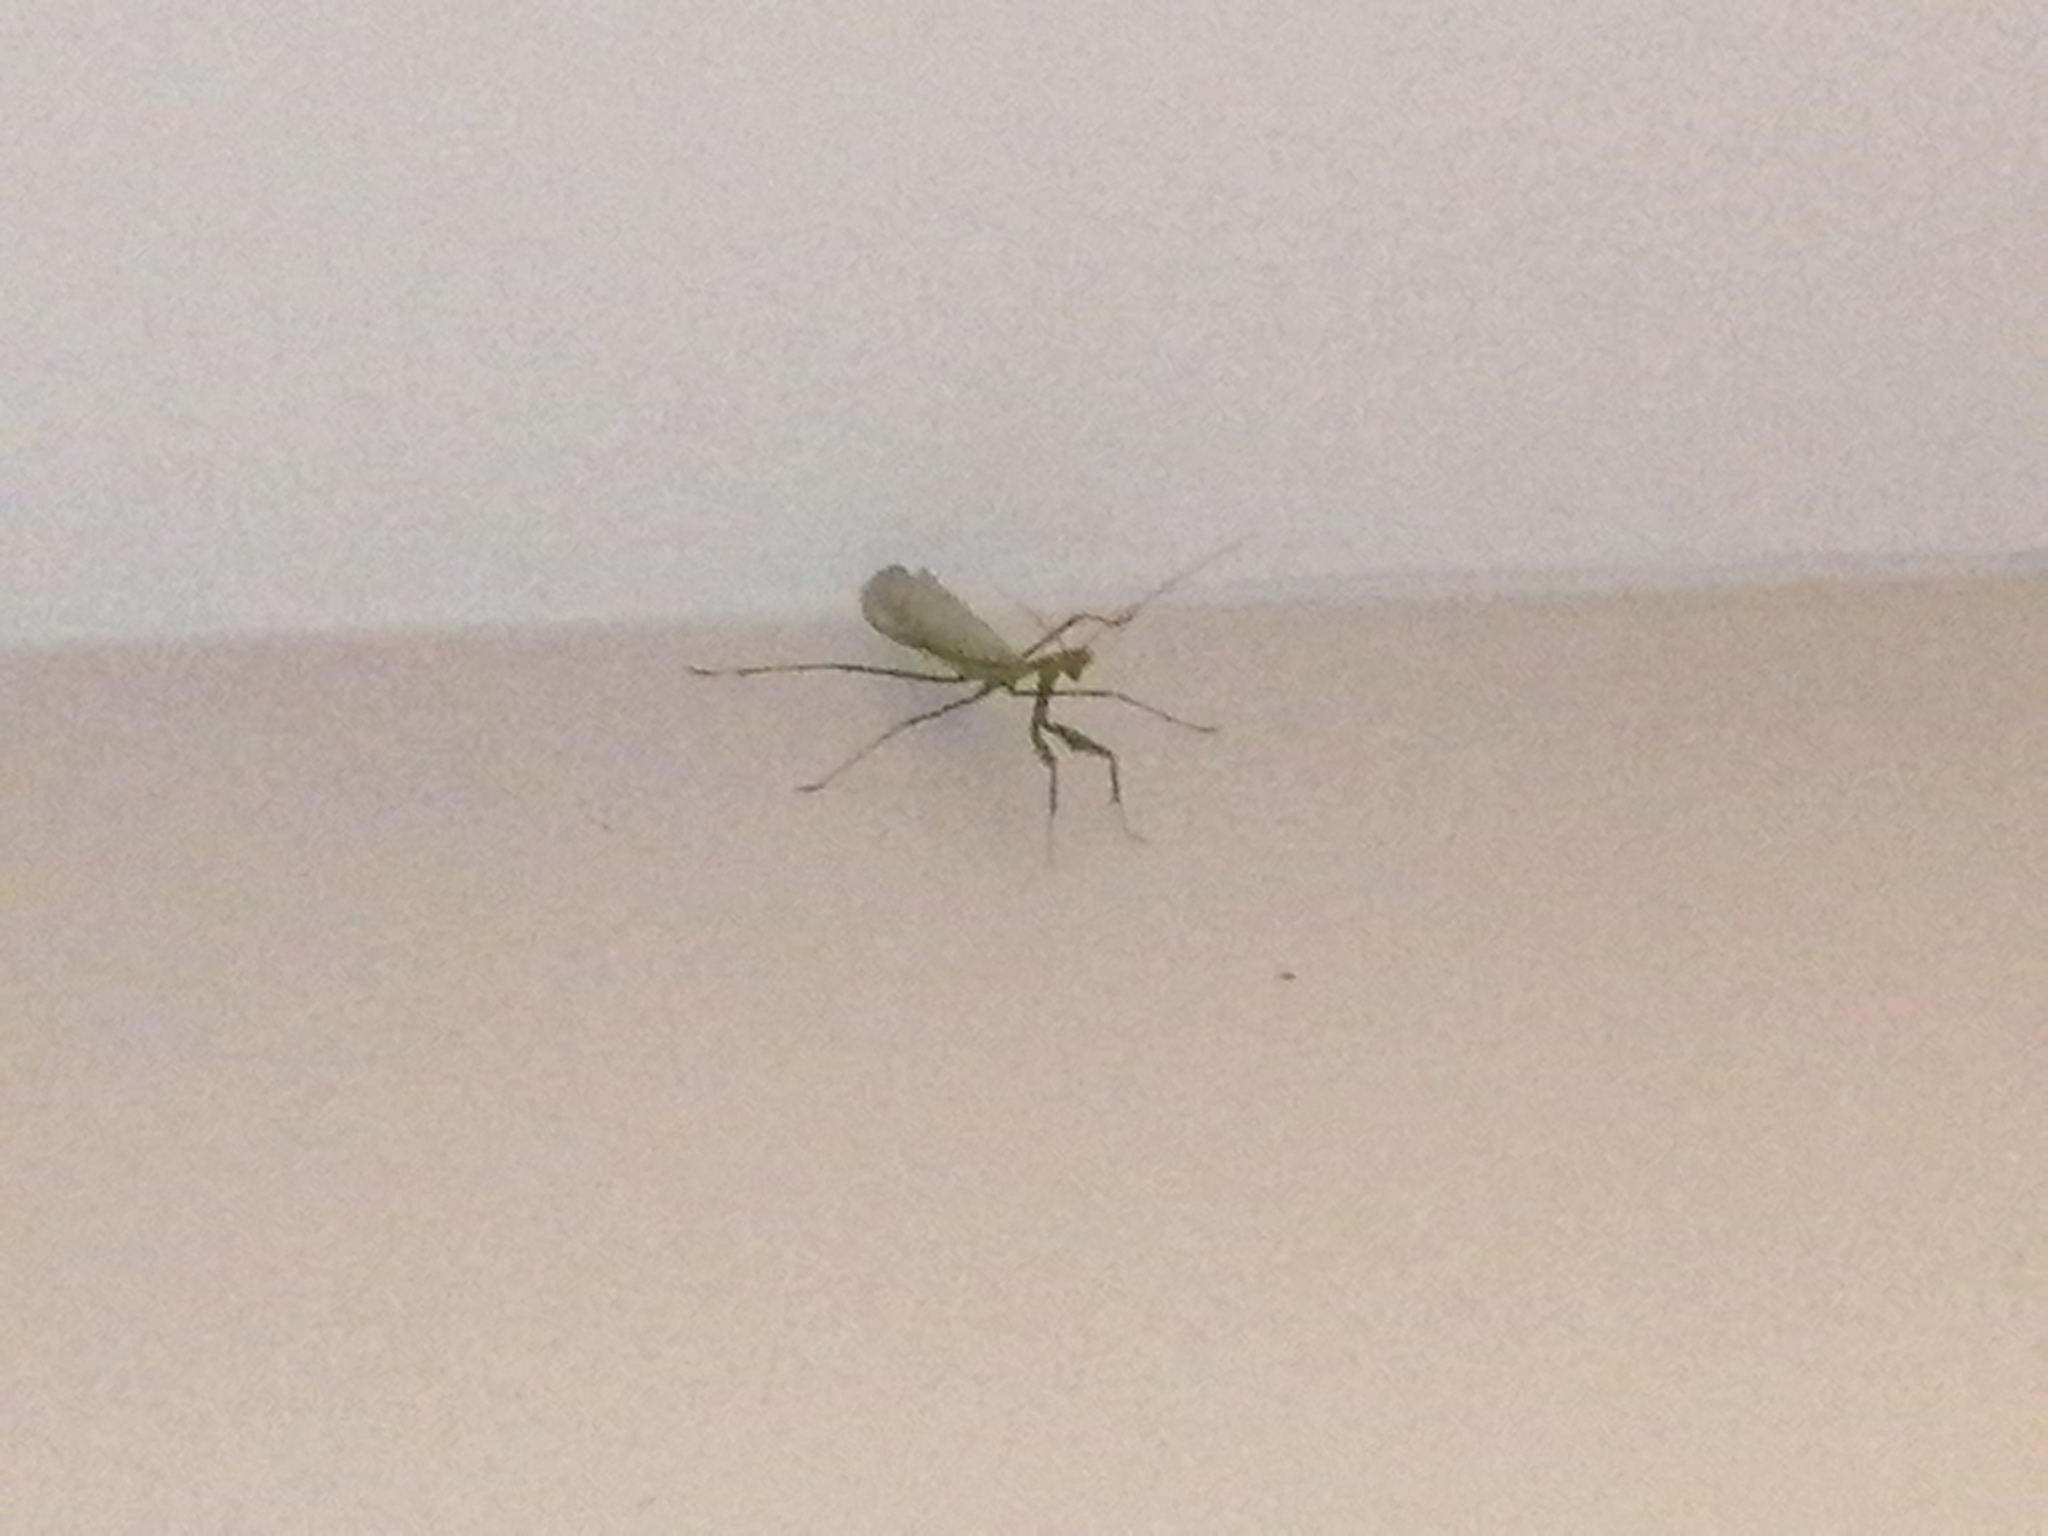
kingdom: Animalia
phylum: Arthropoda
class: Insecta
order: Mantodea
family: Miomantidae
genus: Miomantis
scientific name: Miomantis caffra
